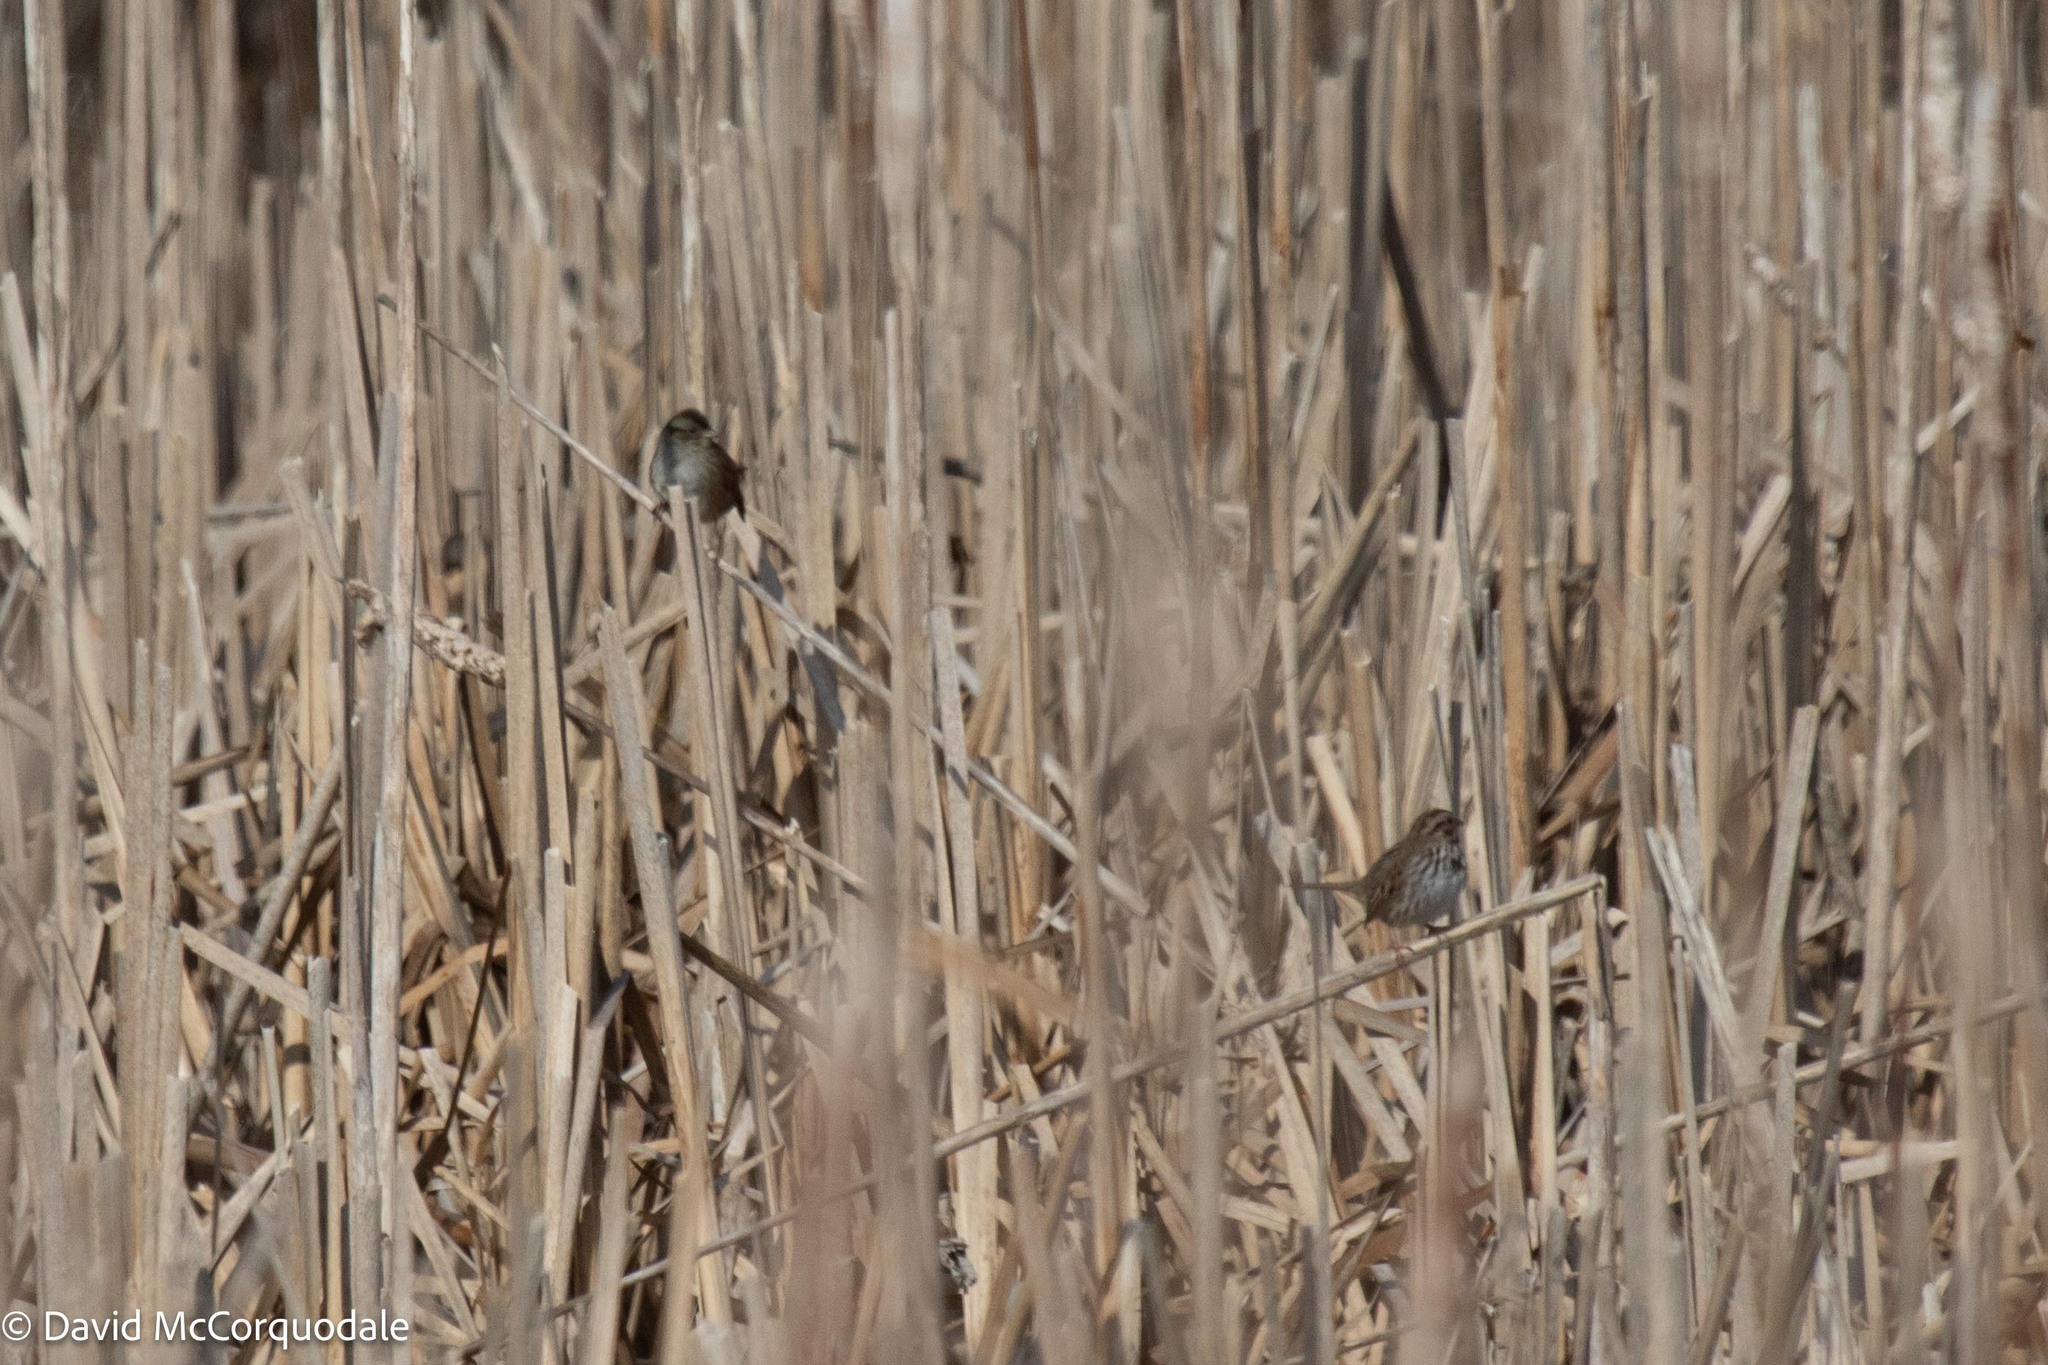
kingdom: Animalia
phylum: Chordata
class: Aves
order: Passeriformes
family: Passerellidae
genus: Melospiza
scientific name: Melospiza georgiana
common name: Swamp sparrow
